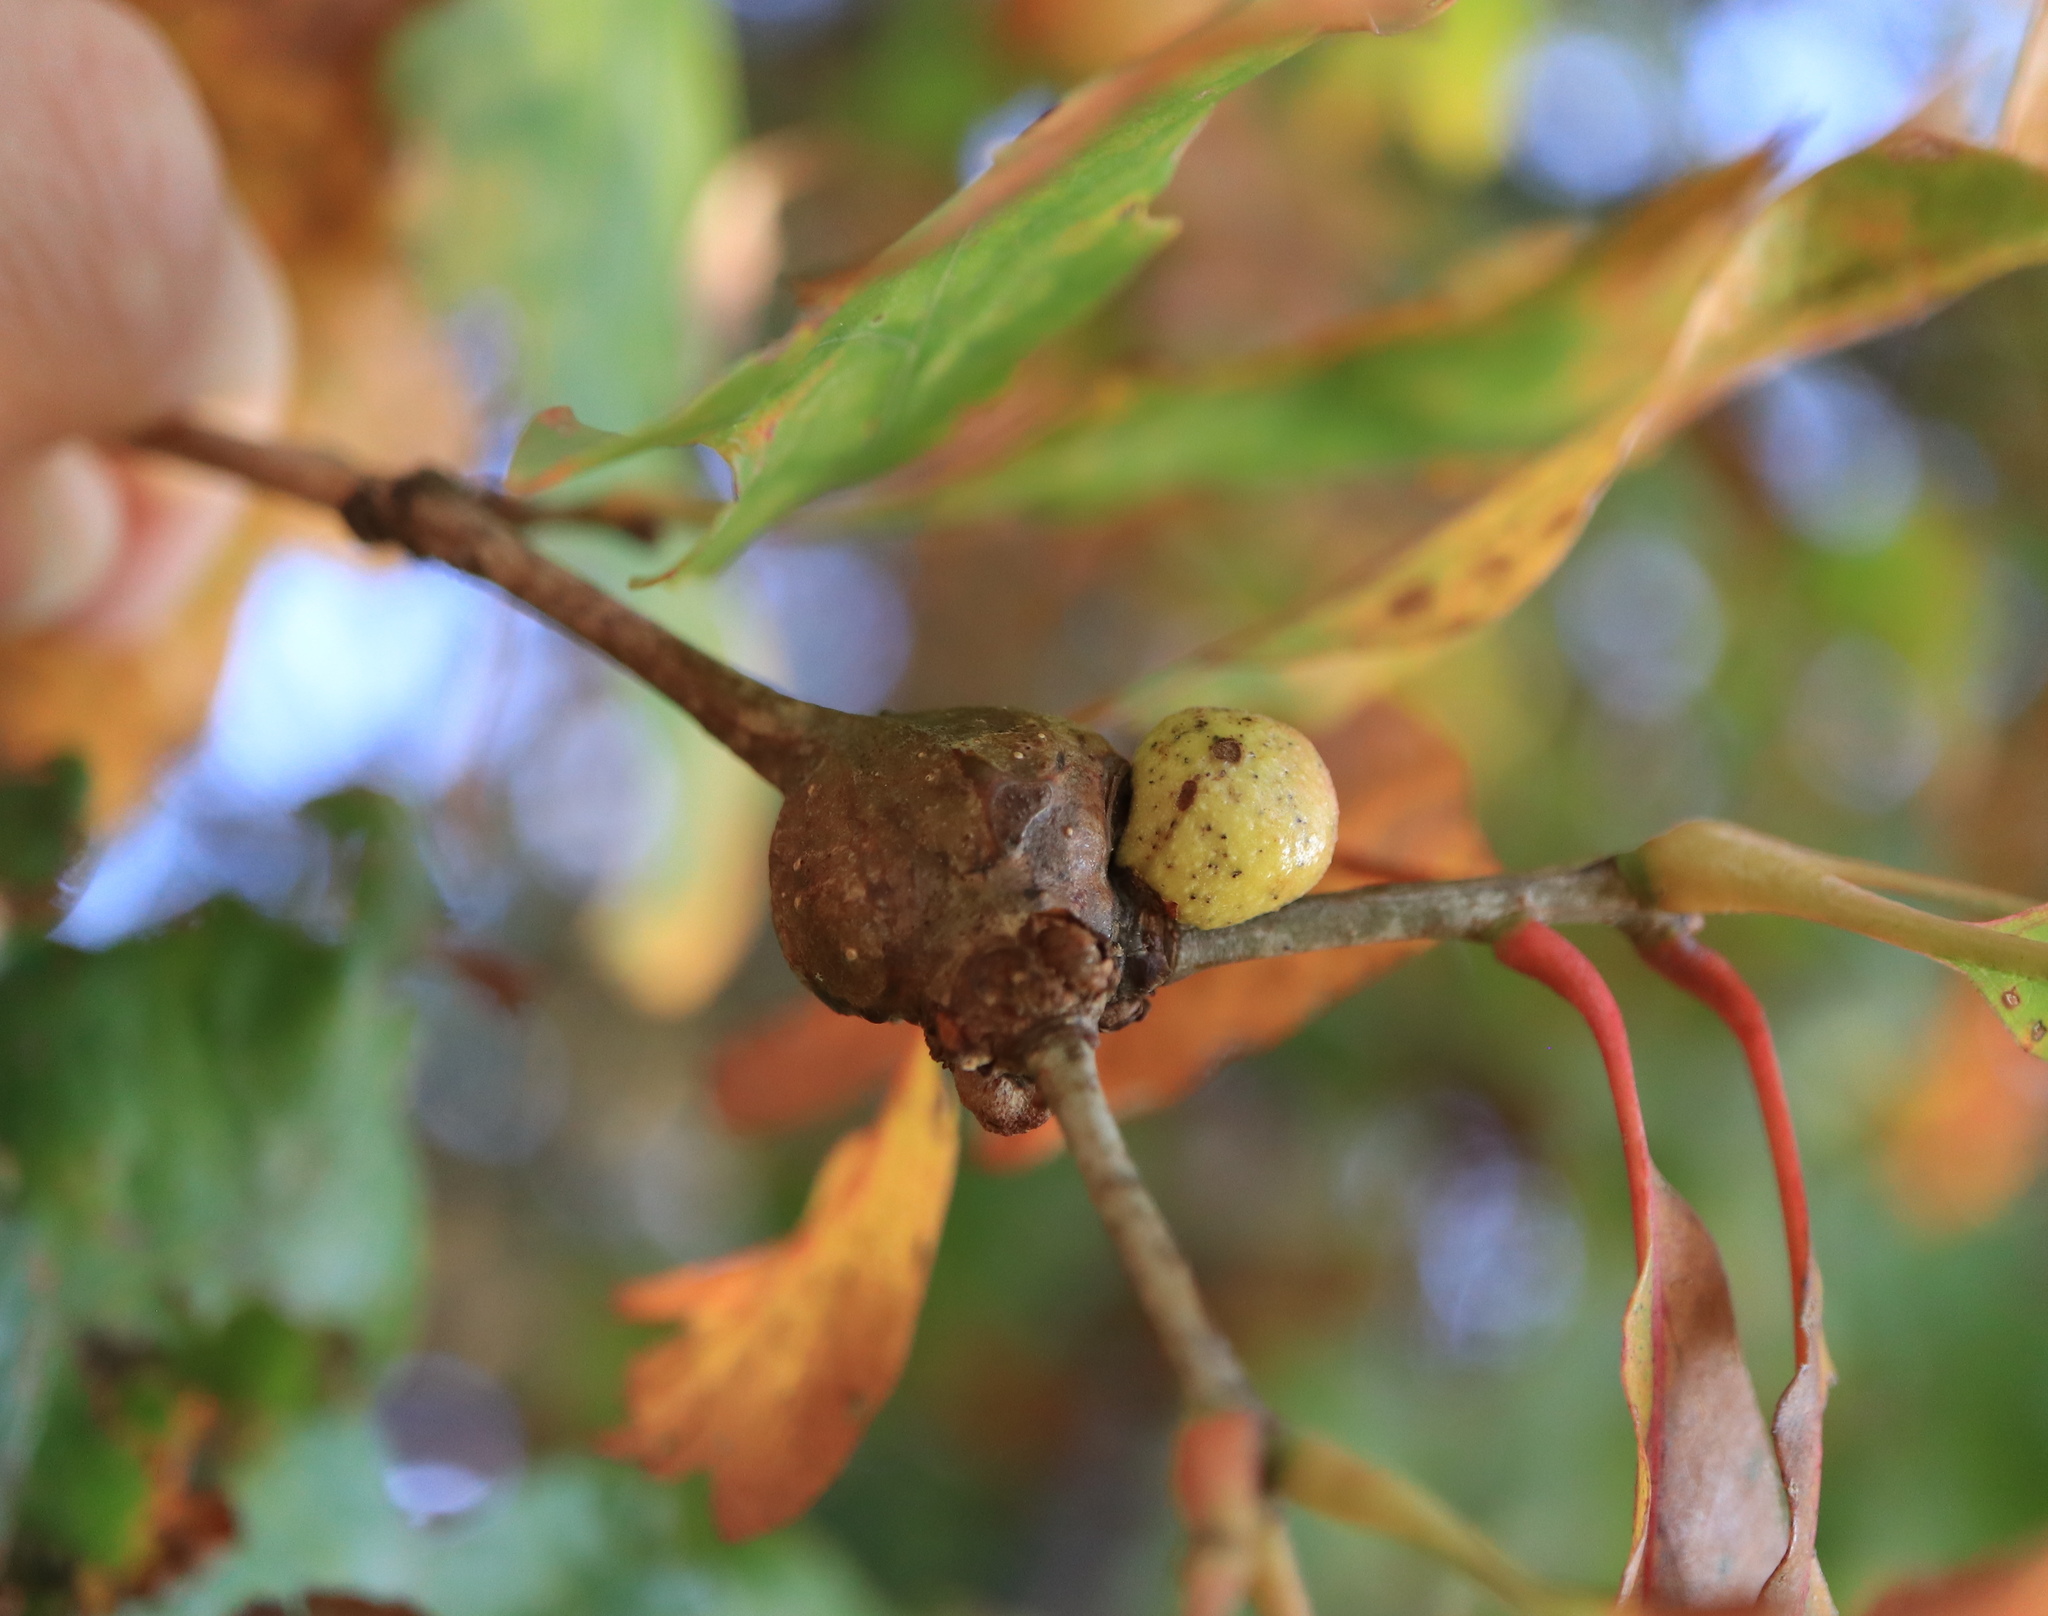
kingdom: Animalia
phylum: Arthropoda
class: Insecta
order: Hymenoptera
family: Cynipidae
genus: Disholcaspis
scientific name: Disholcaspis quercusglobulus
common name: Round bullet gall wasp
